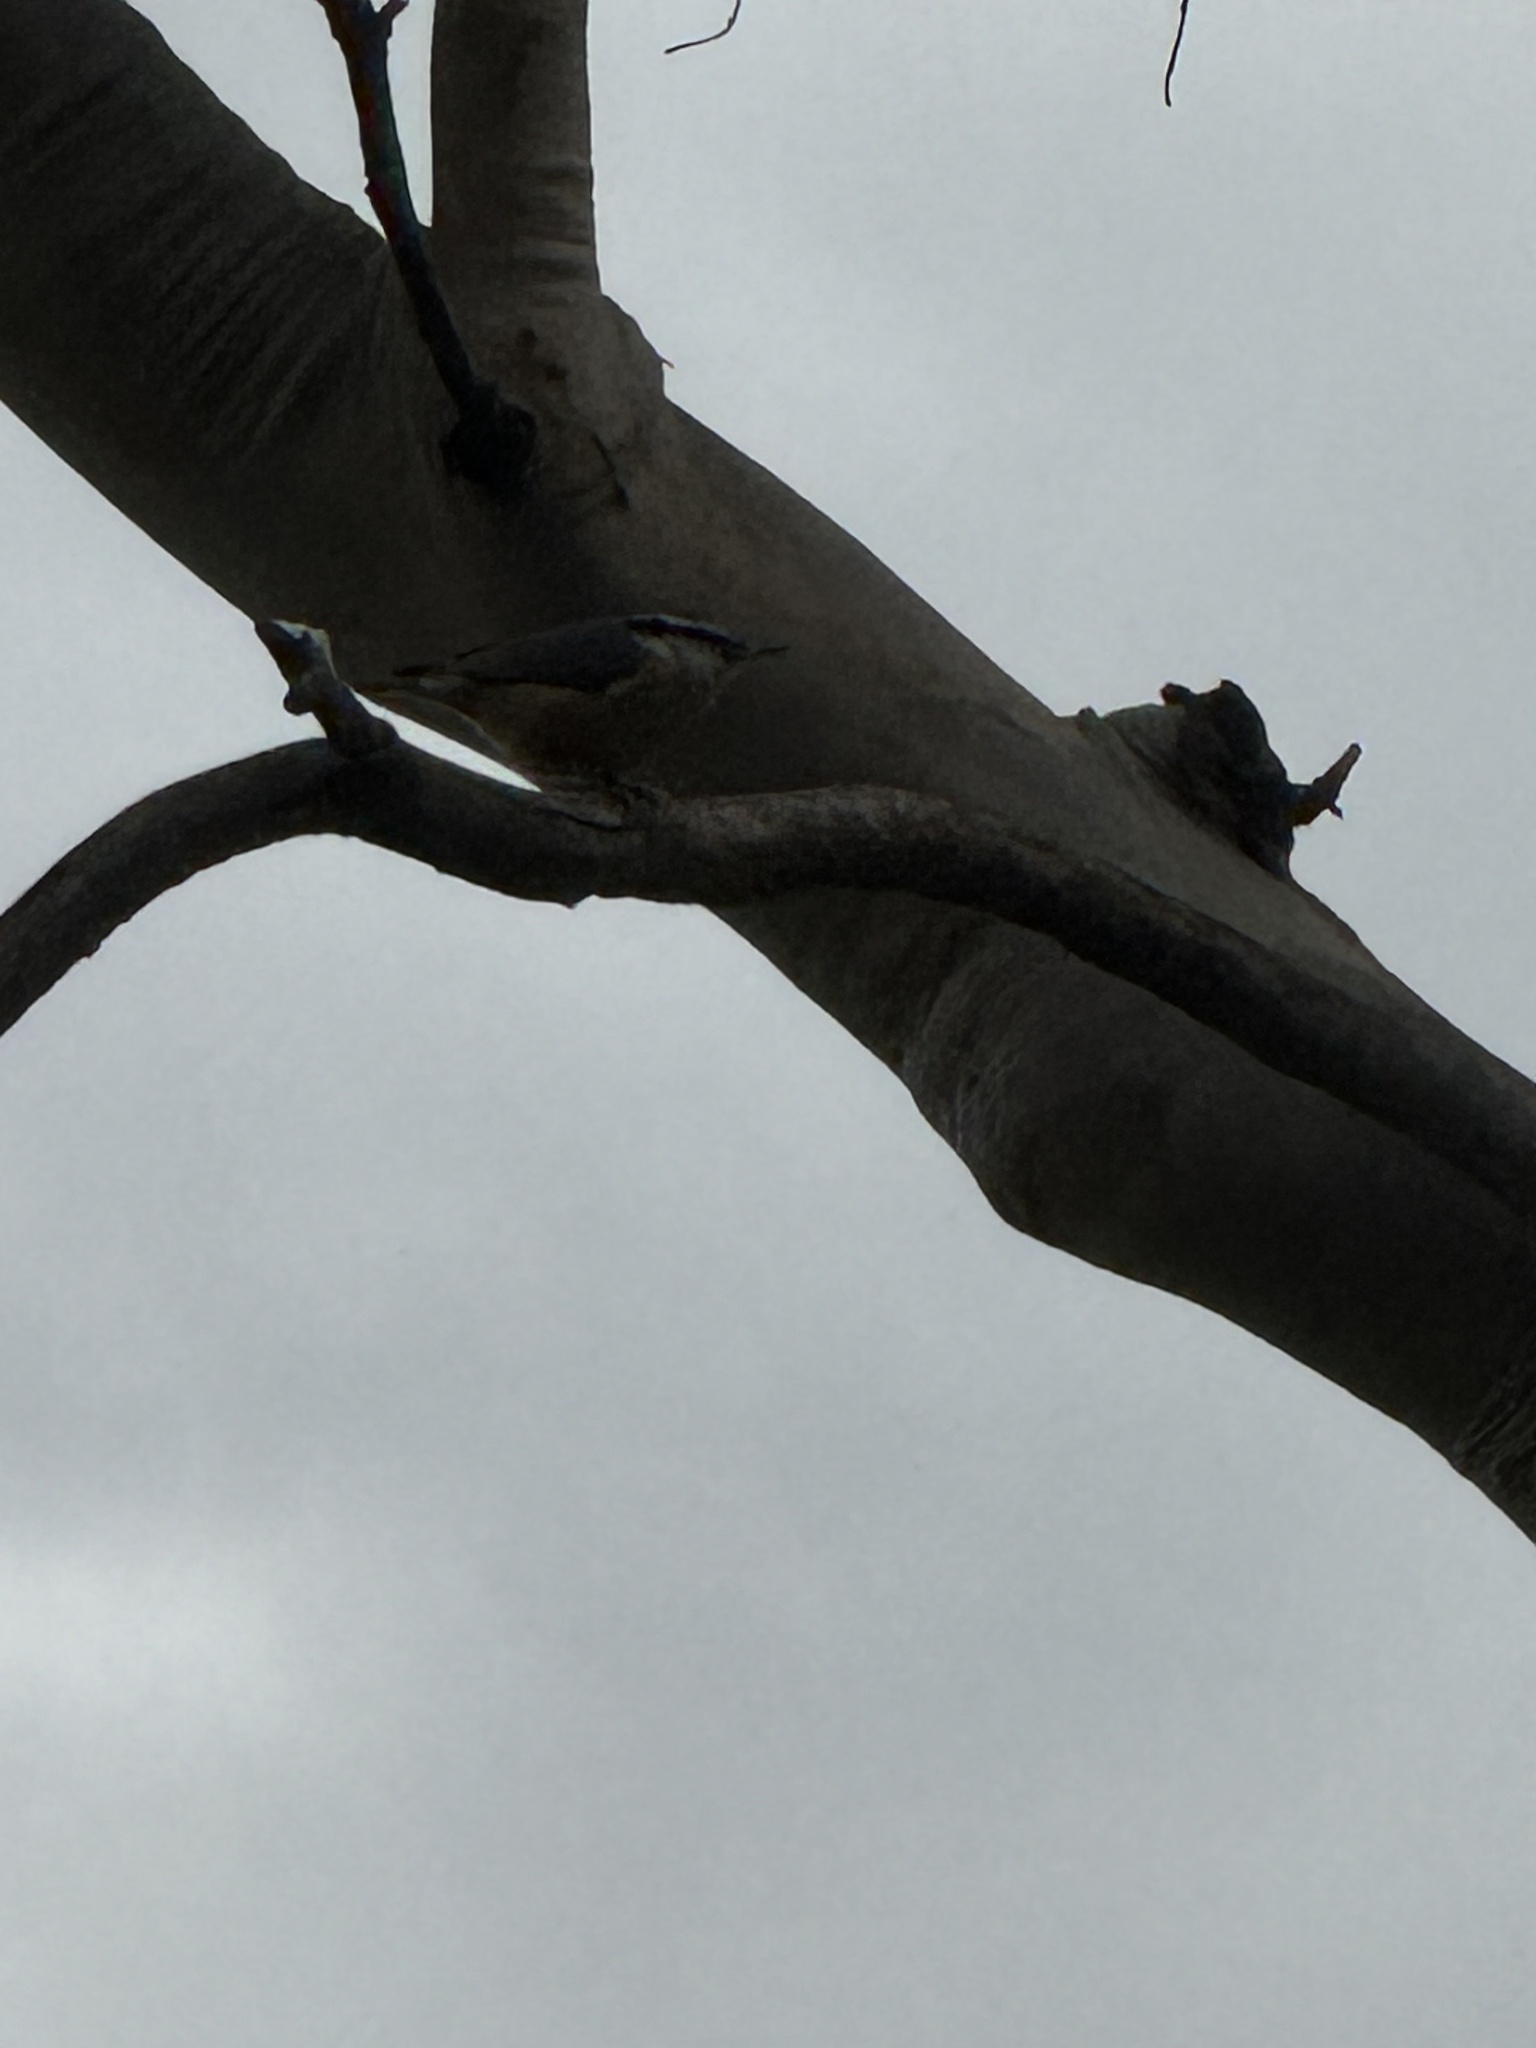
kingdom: Animalia
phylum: Chordata
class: Aves
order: Passeriformes
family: Sittidae
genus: Sitta
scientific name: Sitta canadensis
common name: Red-breasted nuthatch
